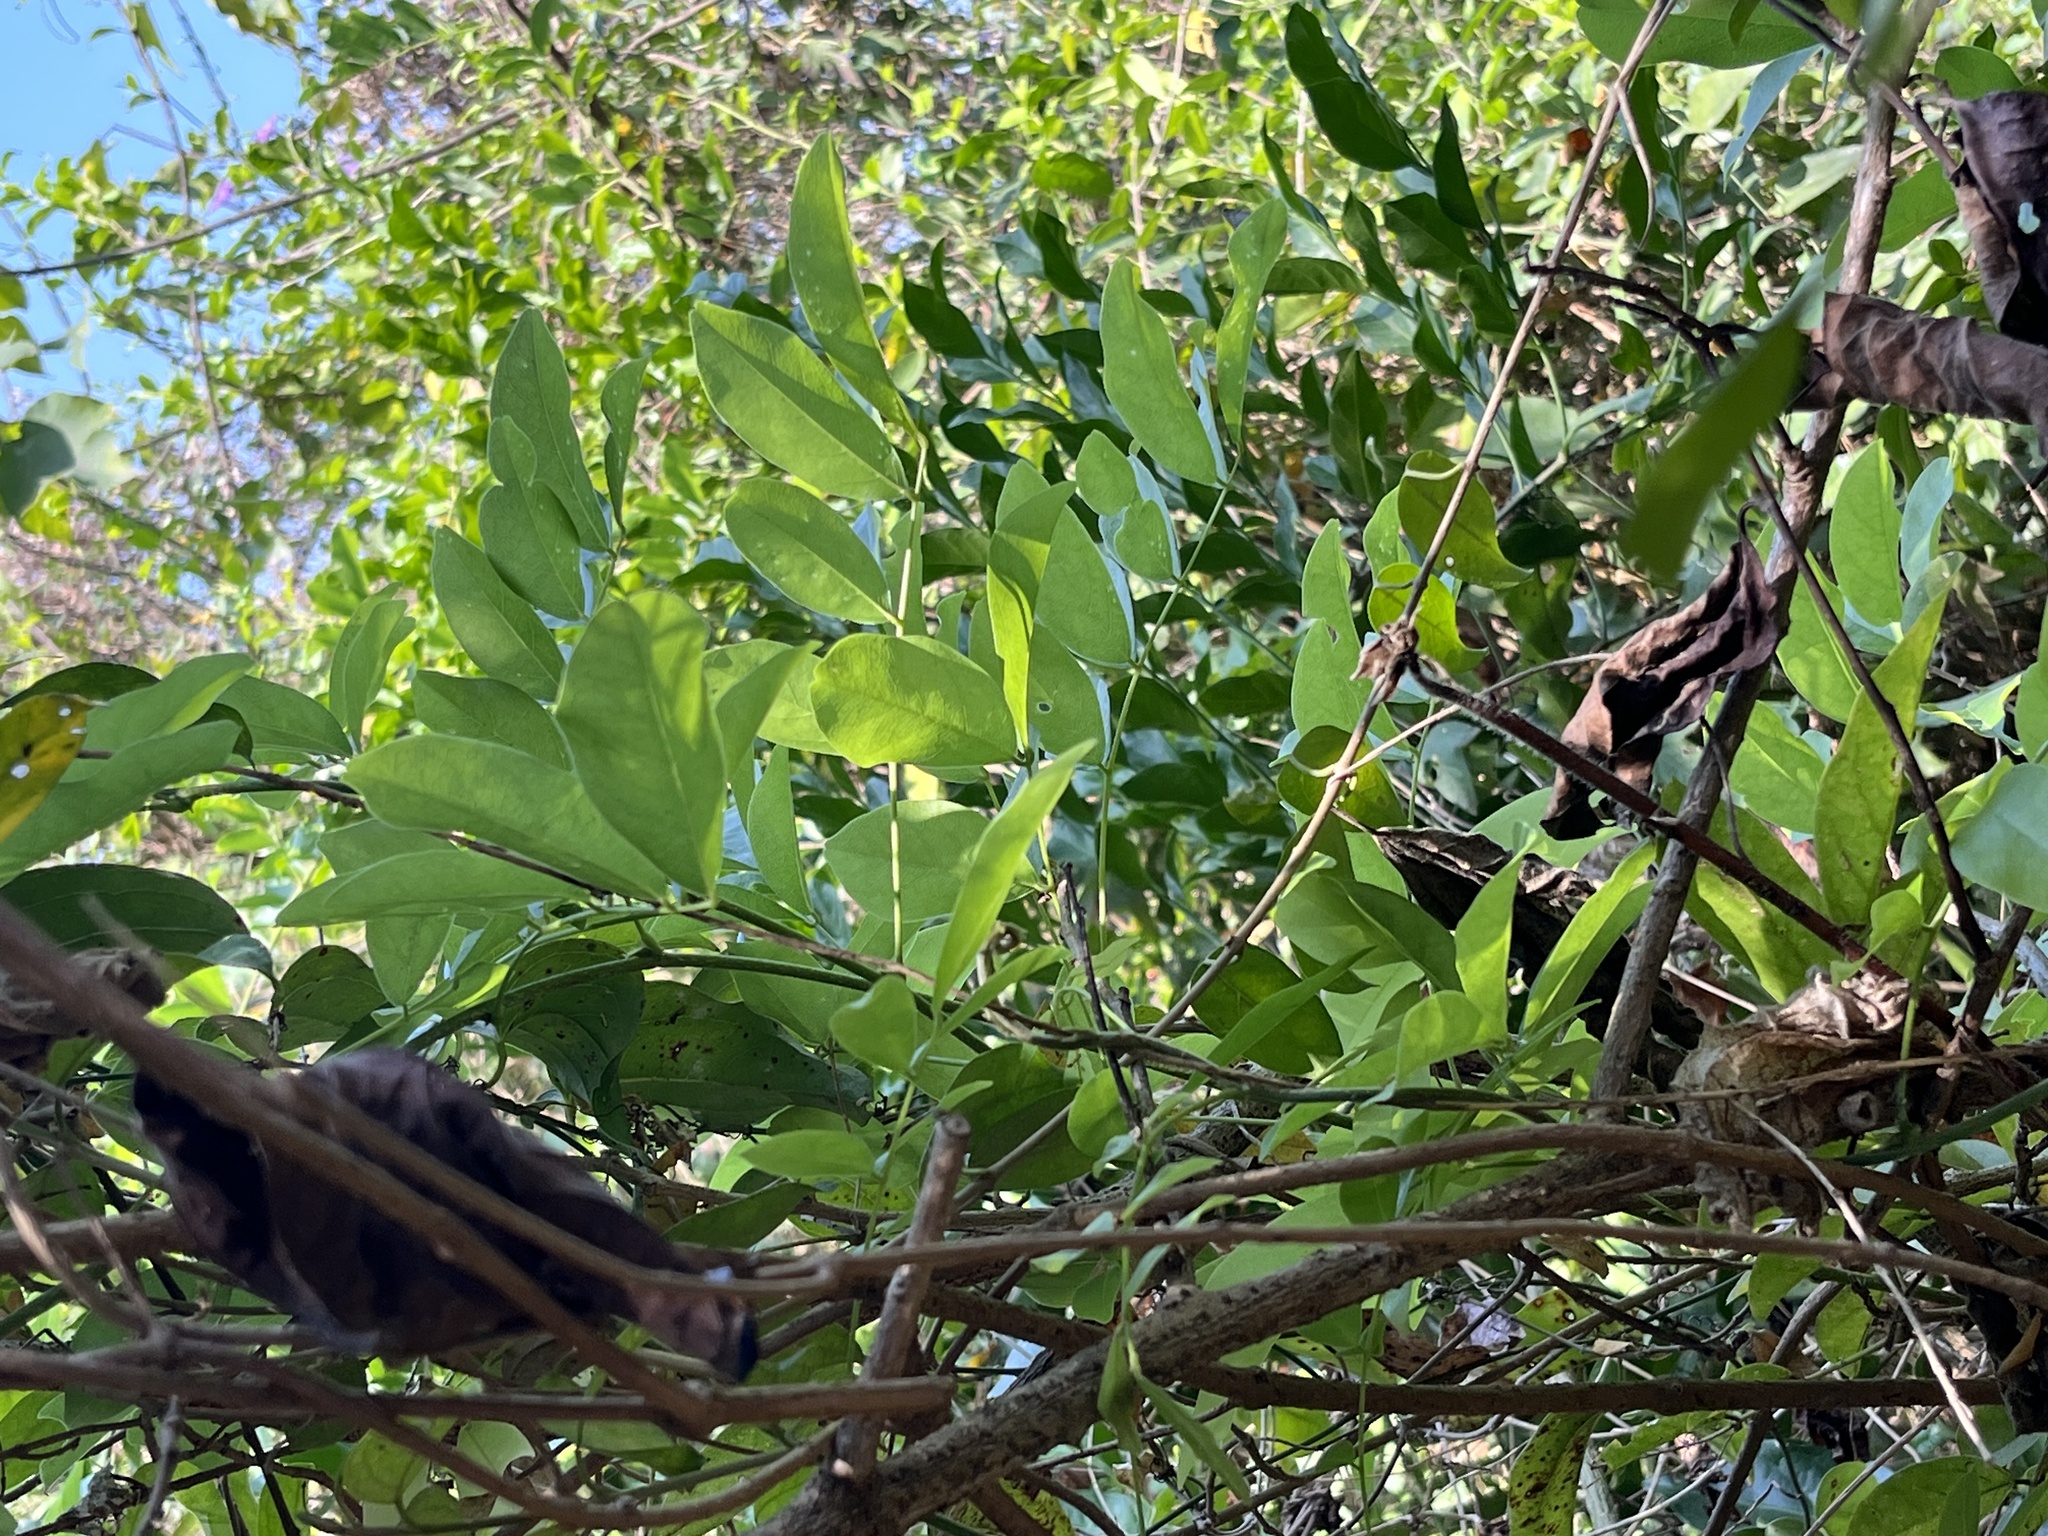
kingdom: Plantae
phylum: Tracheophyta
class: Magnoliopsida
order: Fabales
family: Fabaceae
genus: Wisteriopsis
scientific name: Wisteriopsis reticulata
